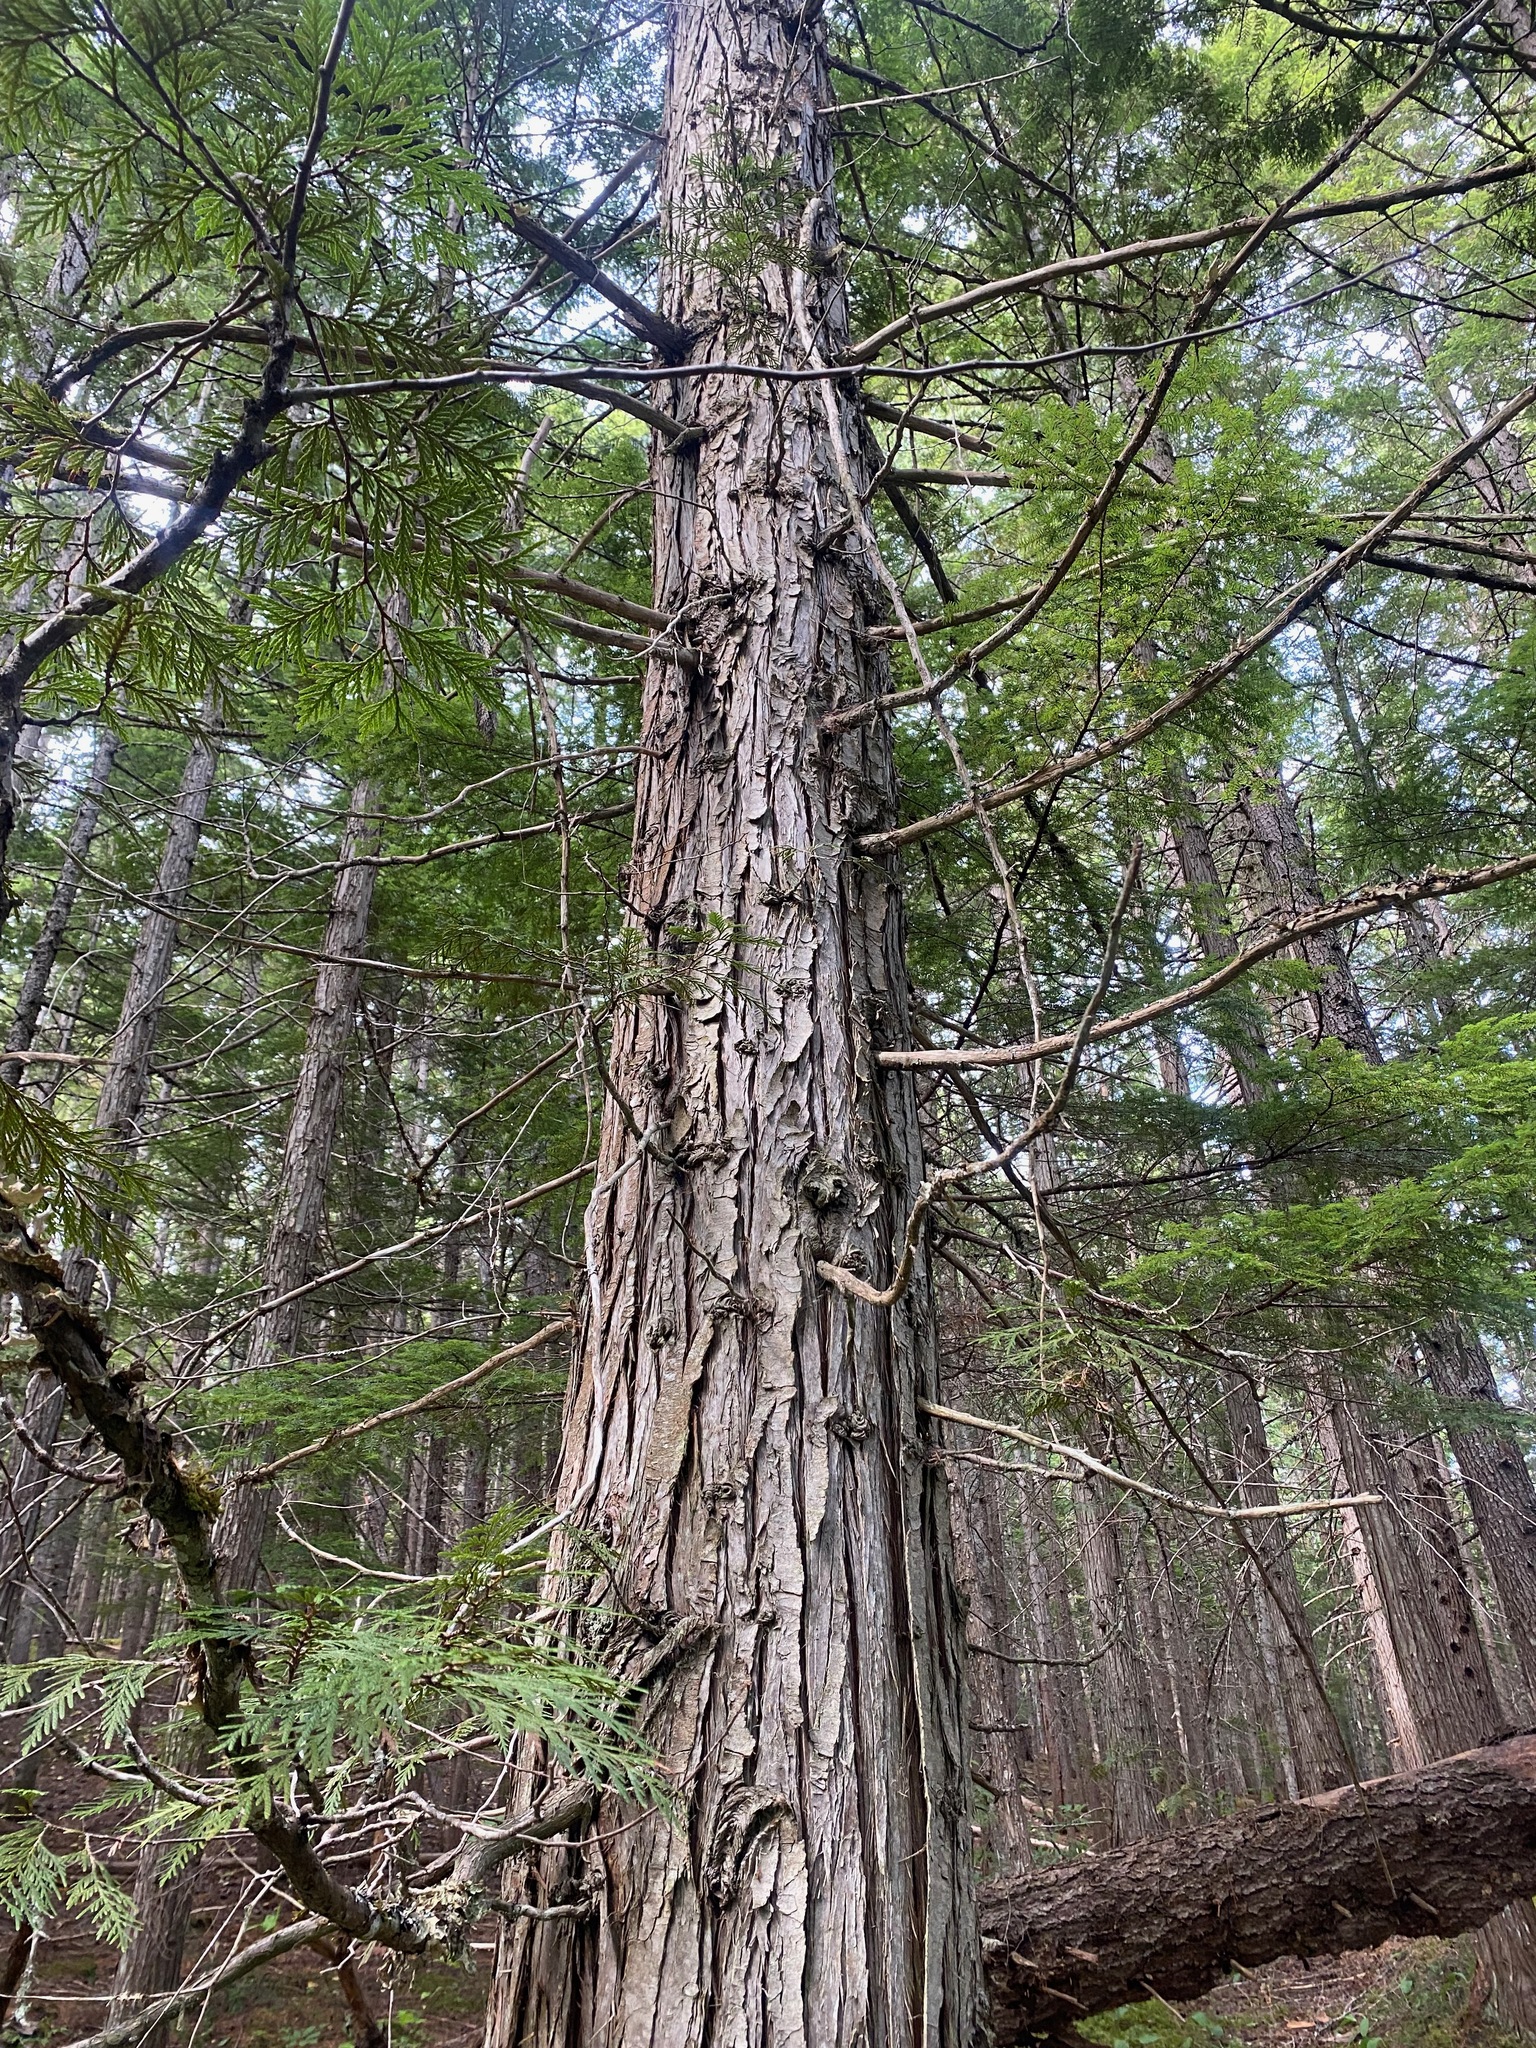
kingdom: Plantae
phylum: Tracheophyta
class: Pinopsida
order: Pinales
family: Cupressaceae
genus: Thuja
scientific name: Thuja plicata
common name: Western red-cedar
